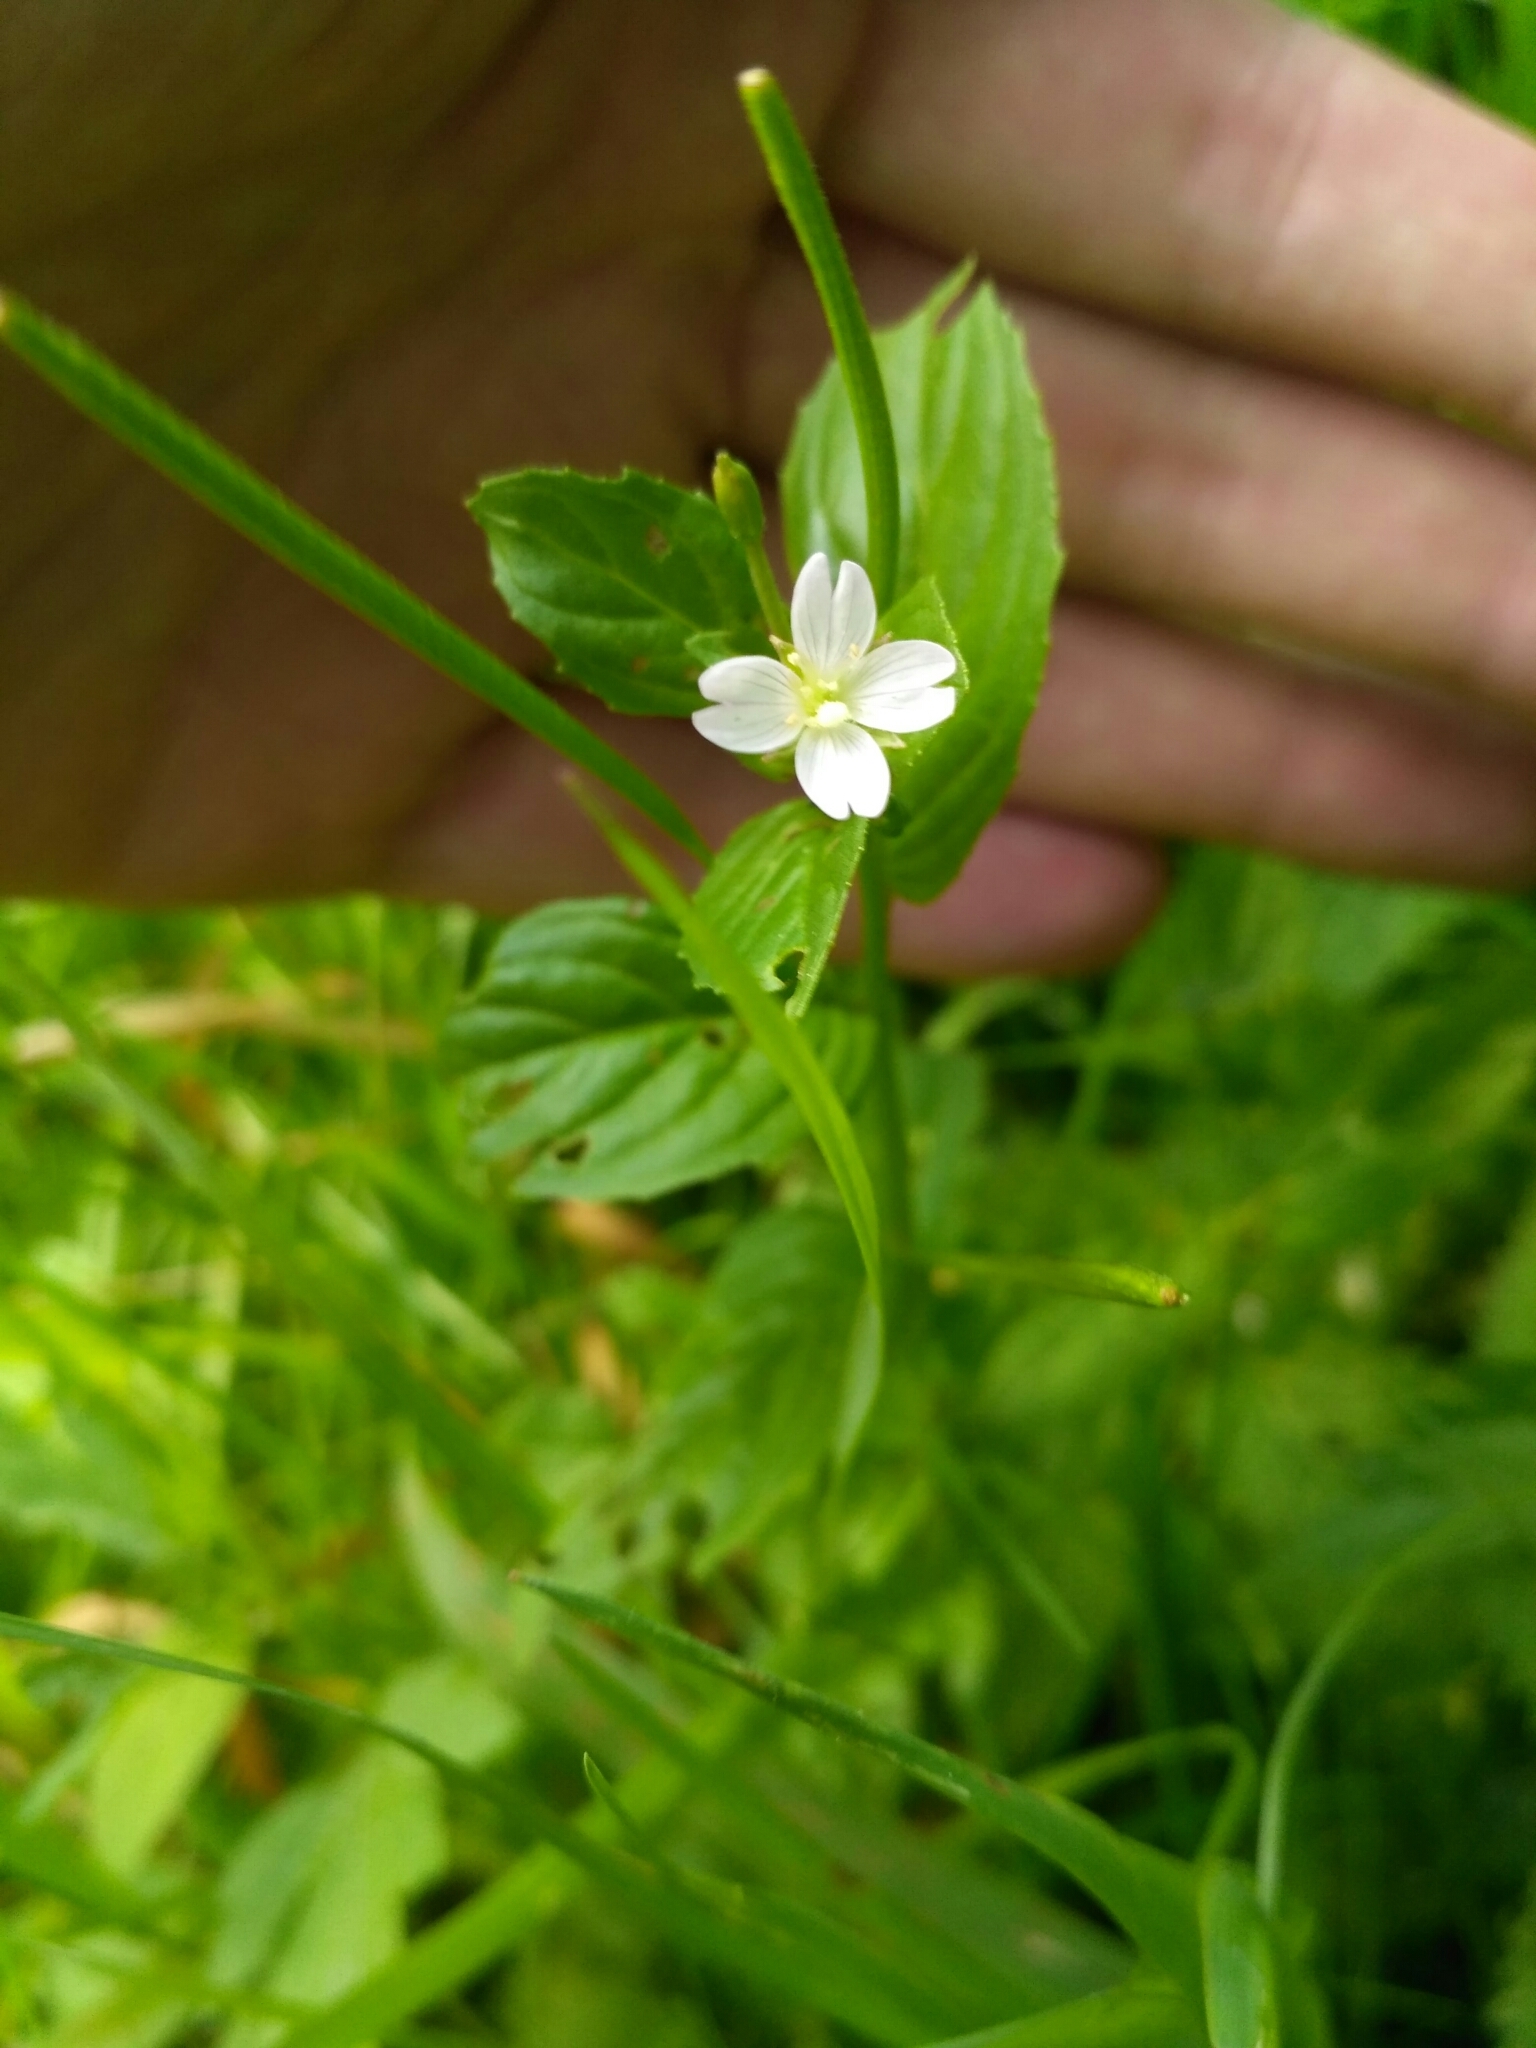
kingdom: Plantae
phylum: Tracheophyta
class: Magnoliopsida
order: Myrtales
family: Onagraceae
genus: Epilobium
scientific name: Epilobium pseudorubescens
